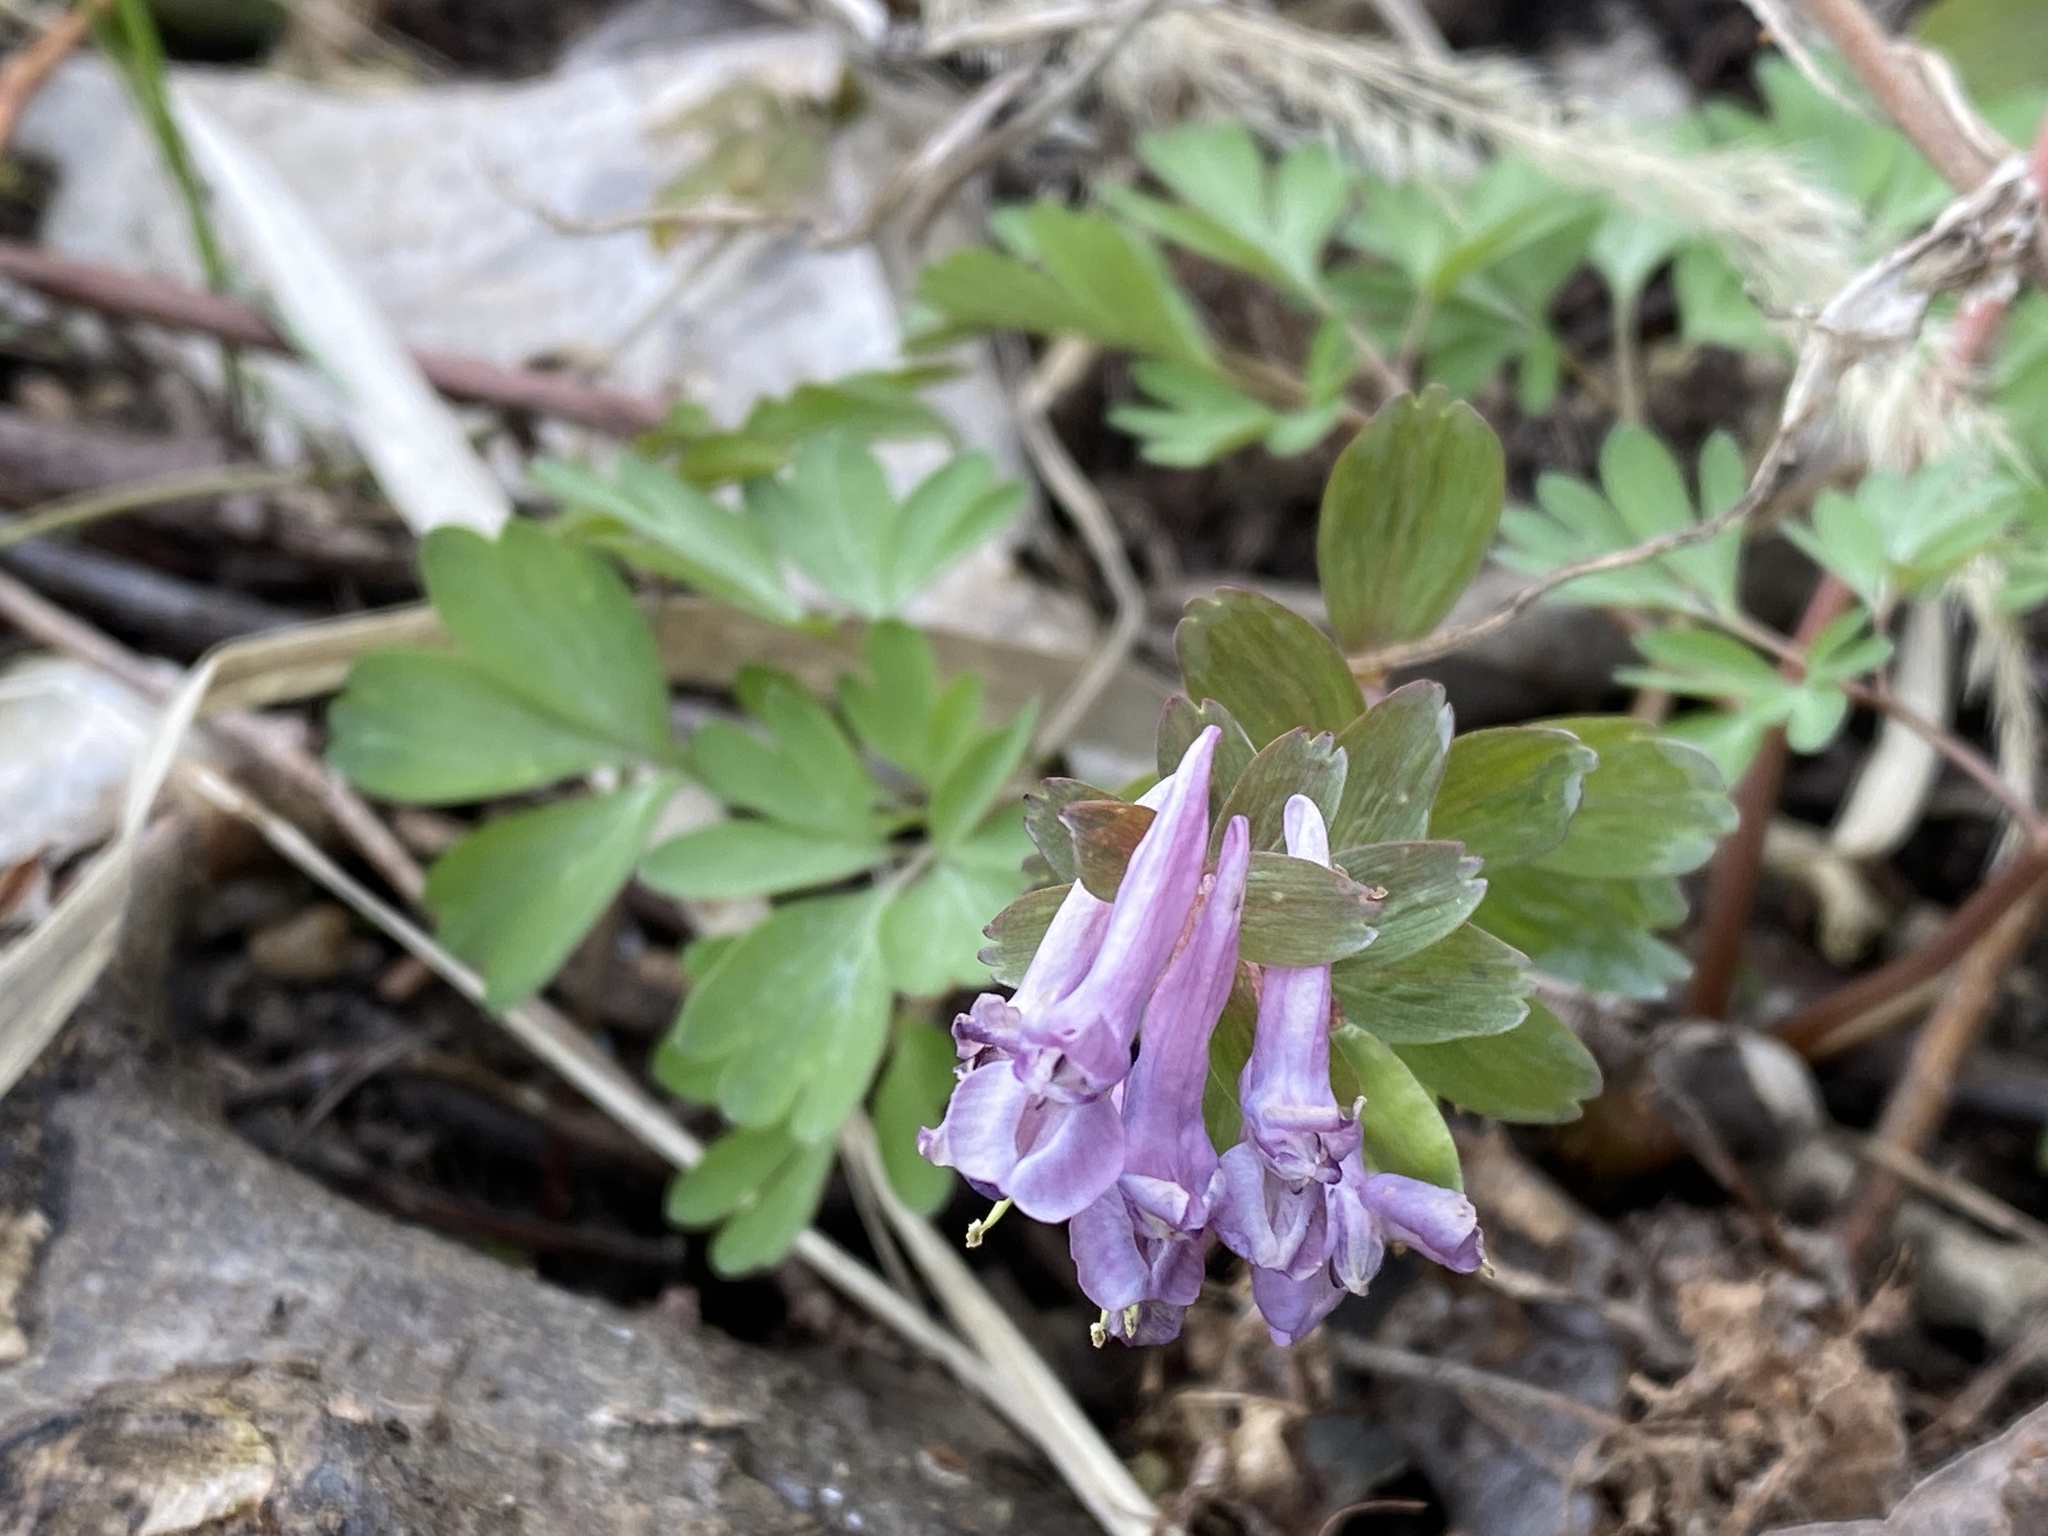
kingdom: Plantae
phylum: Tracheophyta
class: Magnoliopsida
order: Ranunculales
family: Papaveraceae
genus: Corydalis
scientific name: Corydalis solida
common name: Bird-in-a-bush
